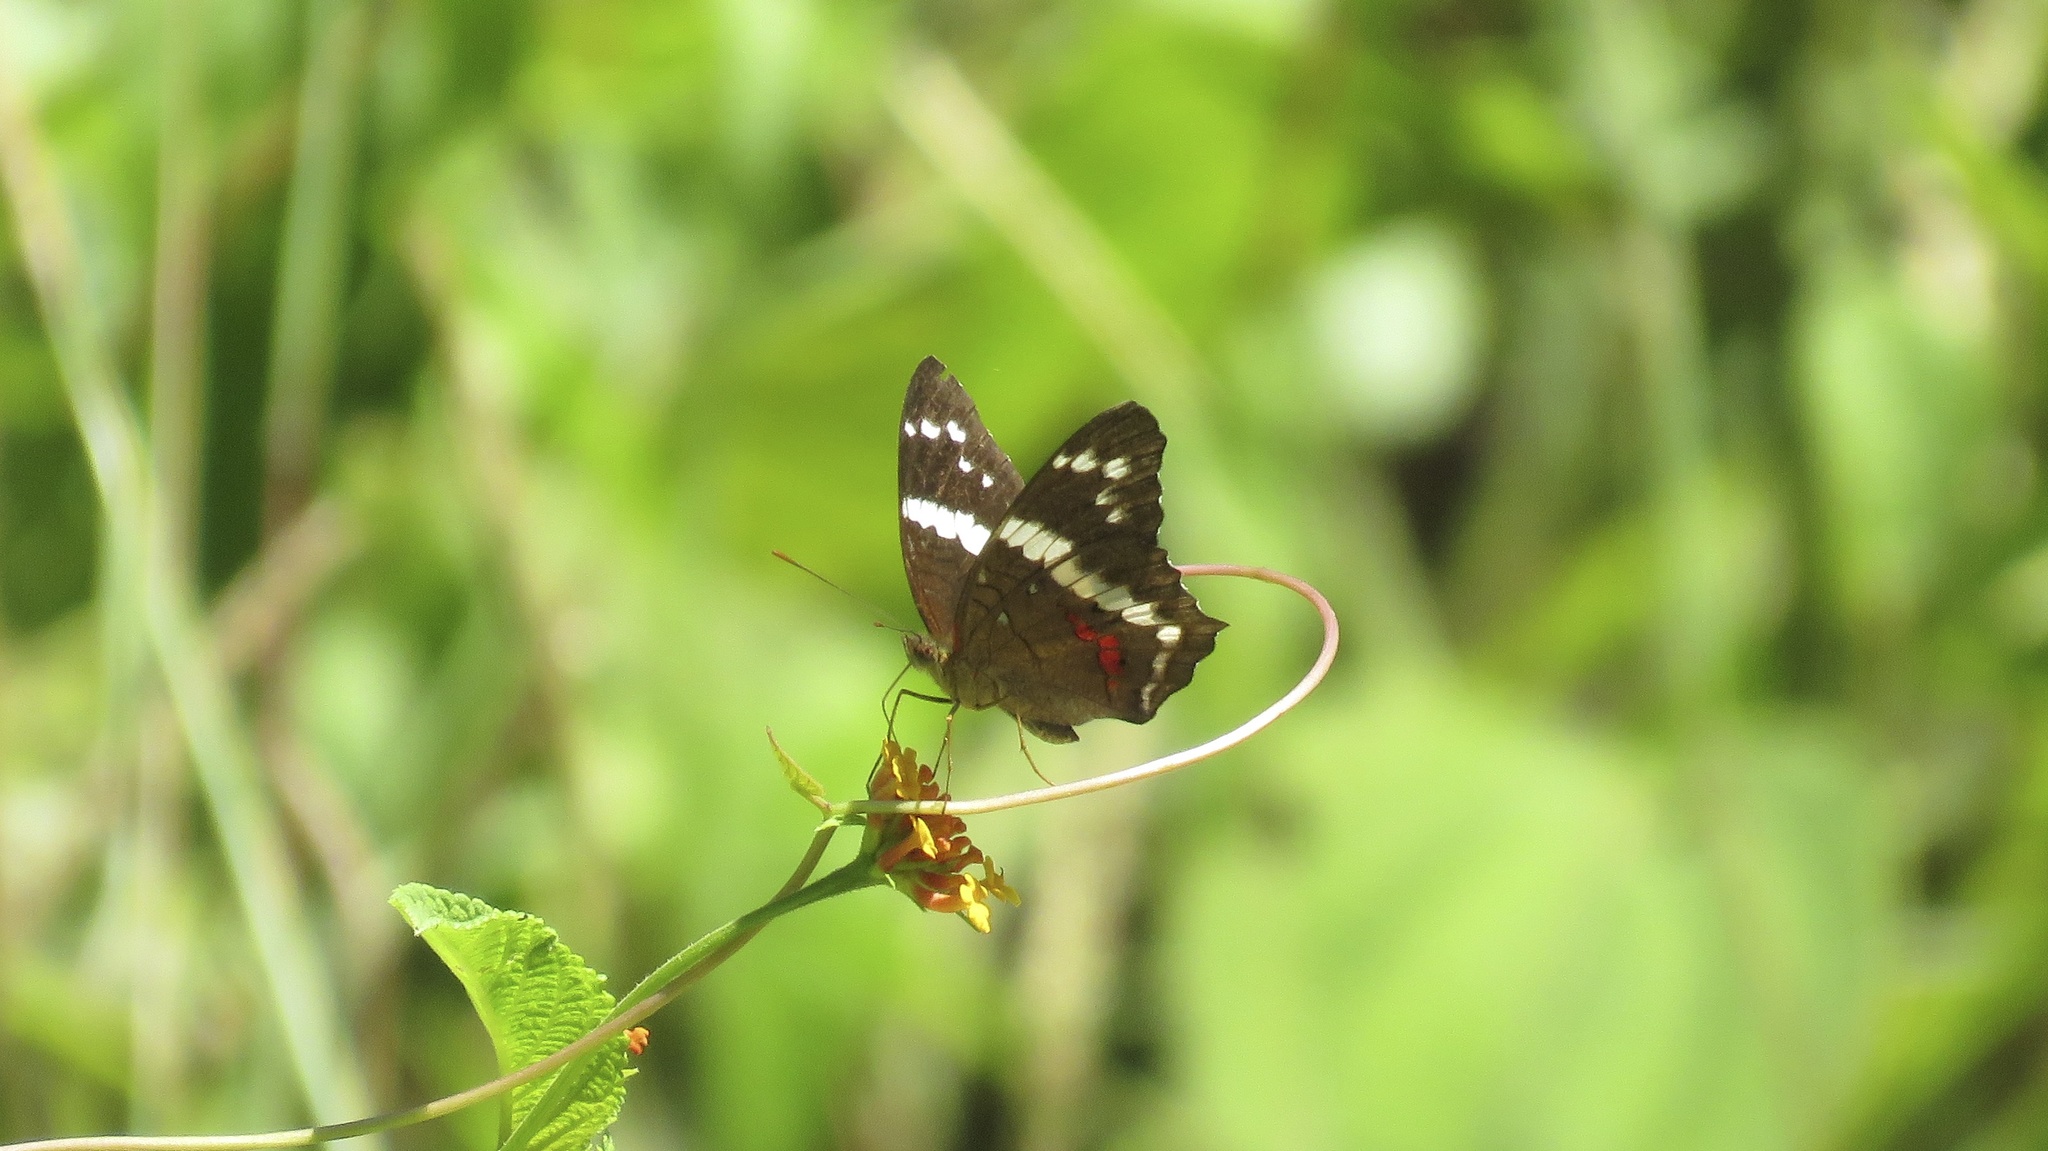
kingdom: Animalia
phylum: Arthropoda
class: Insecta
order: Lepidoptera
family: Nymphalidae
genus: Anartia
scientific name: Anartia fatima
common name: Banded peacock
